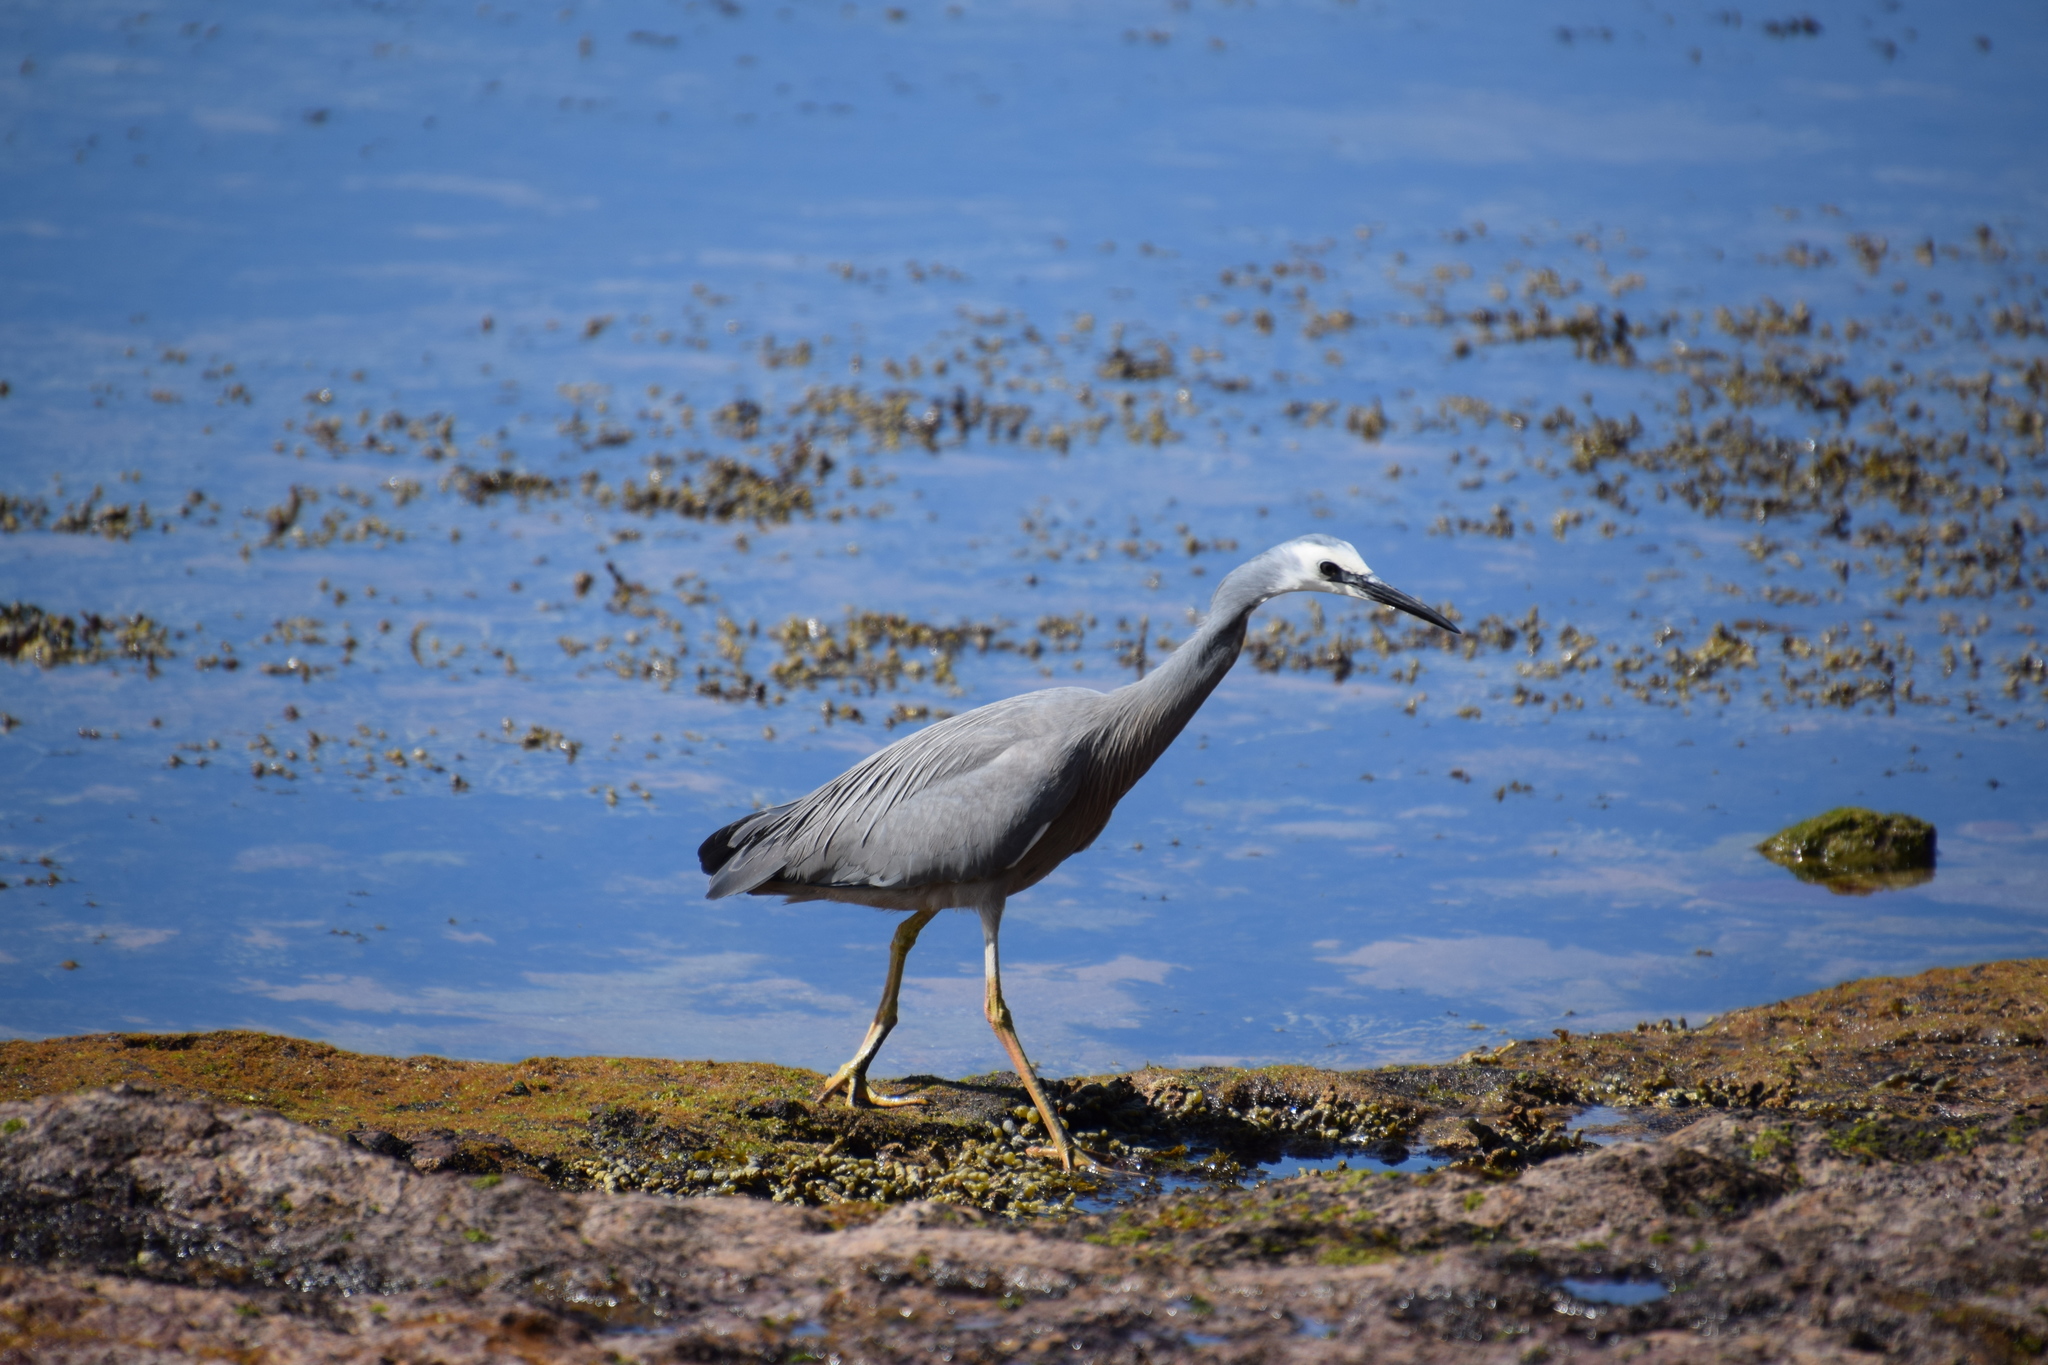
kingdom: Animalia
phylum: Chordata
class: Aves
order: Pelecaniformes
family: Ardeidae
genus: Egretta
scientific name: Egretta novaehollandiae
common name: White-faced heron
